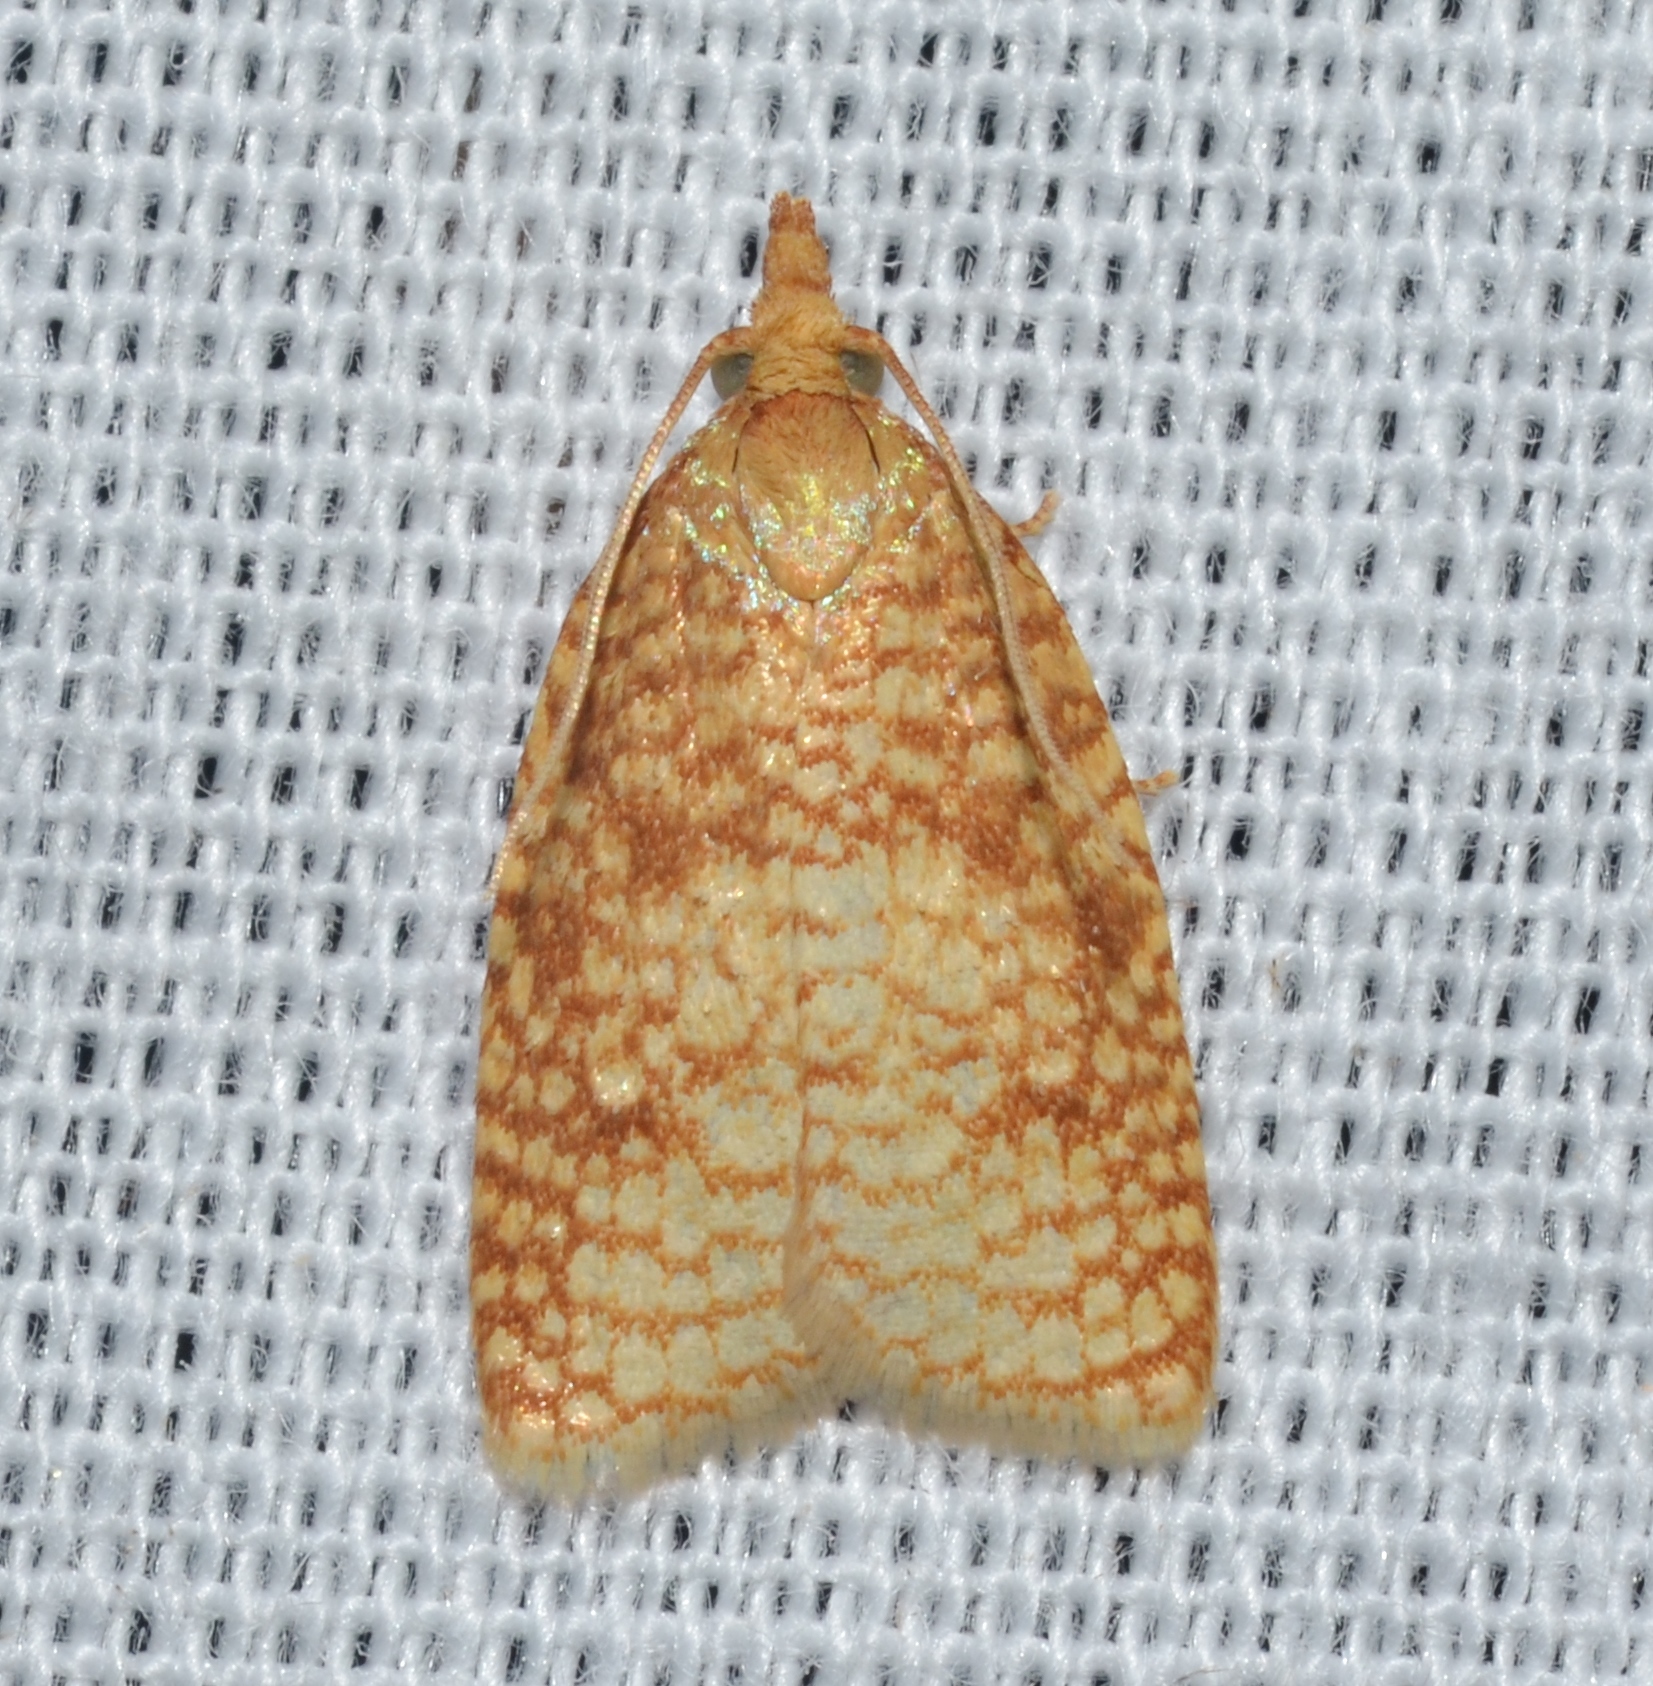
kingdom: Animalia
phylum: Arthropoda
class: Insecta
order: Lepidoptera
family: Tortricidae
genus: Sparganothis
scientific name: Sparganothis caryae
